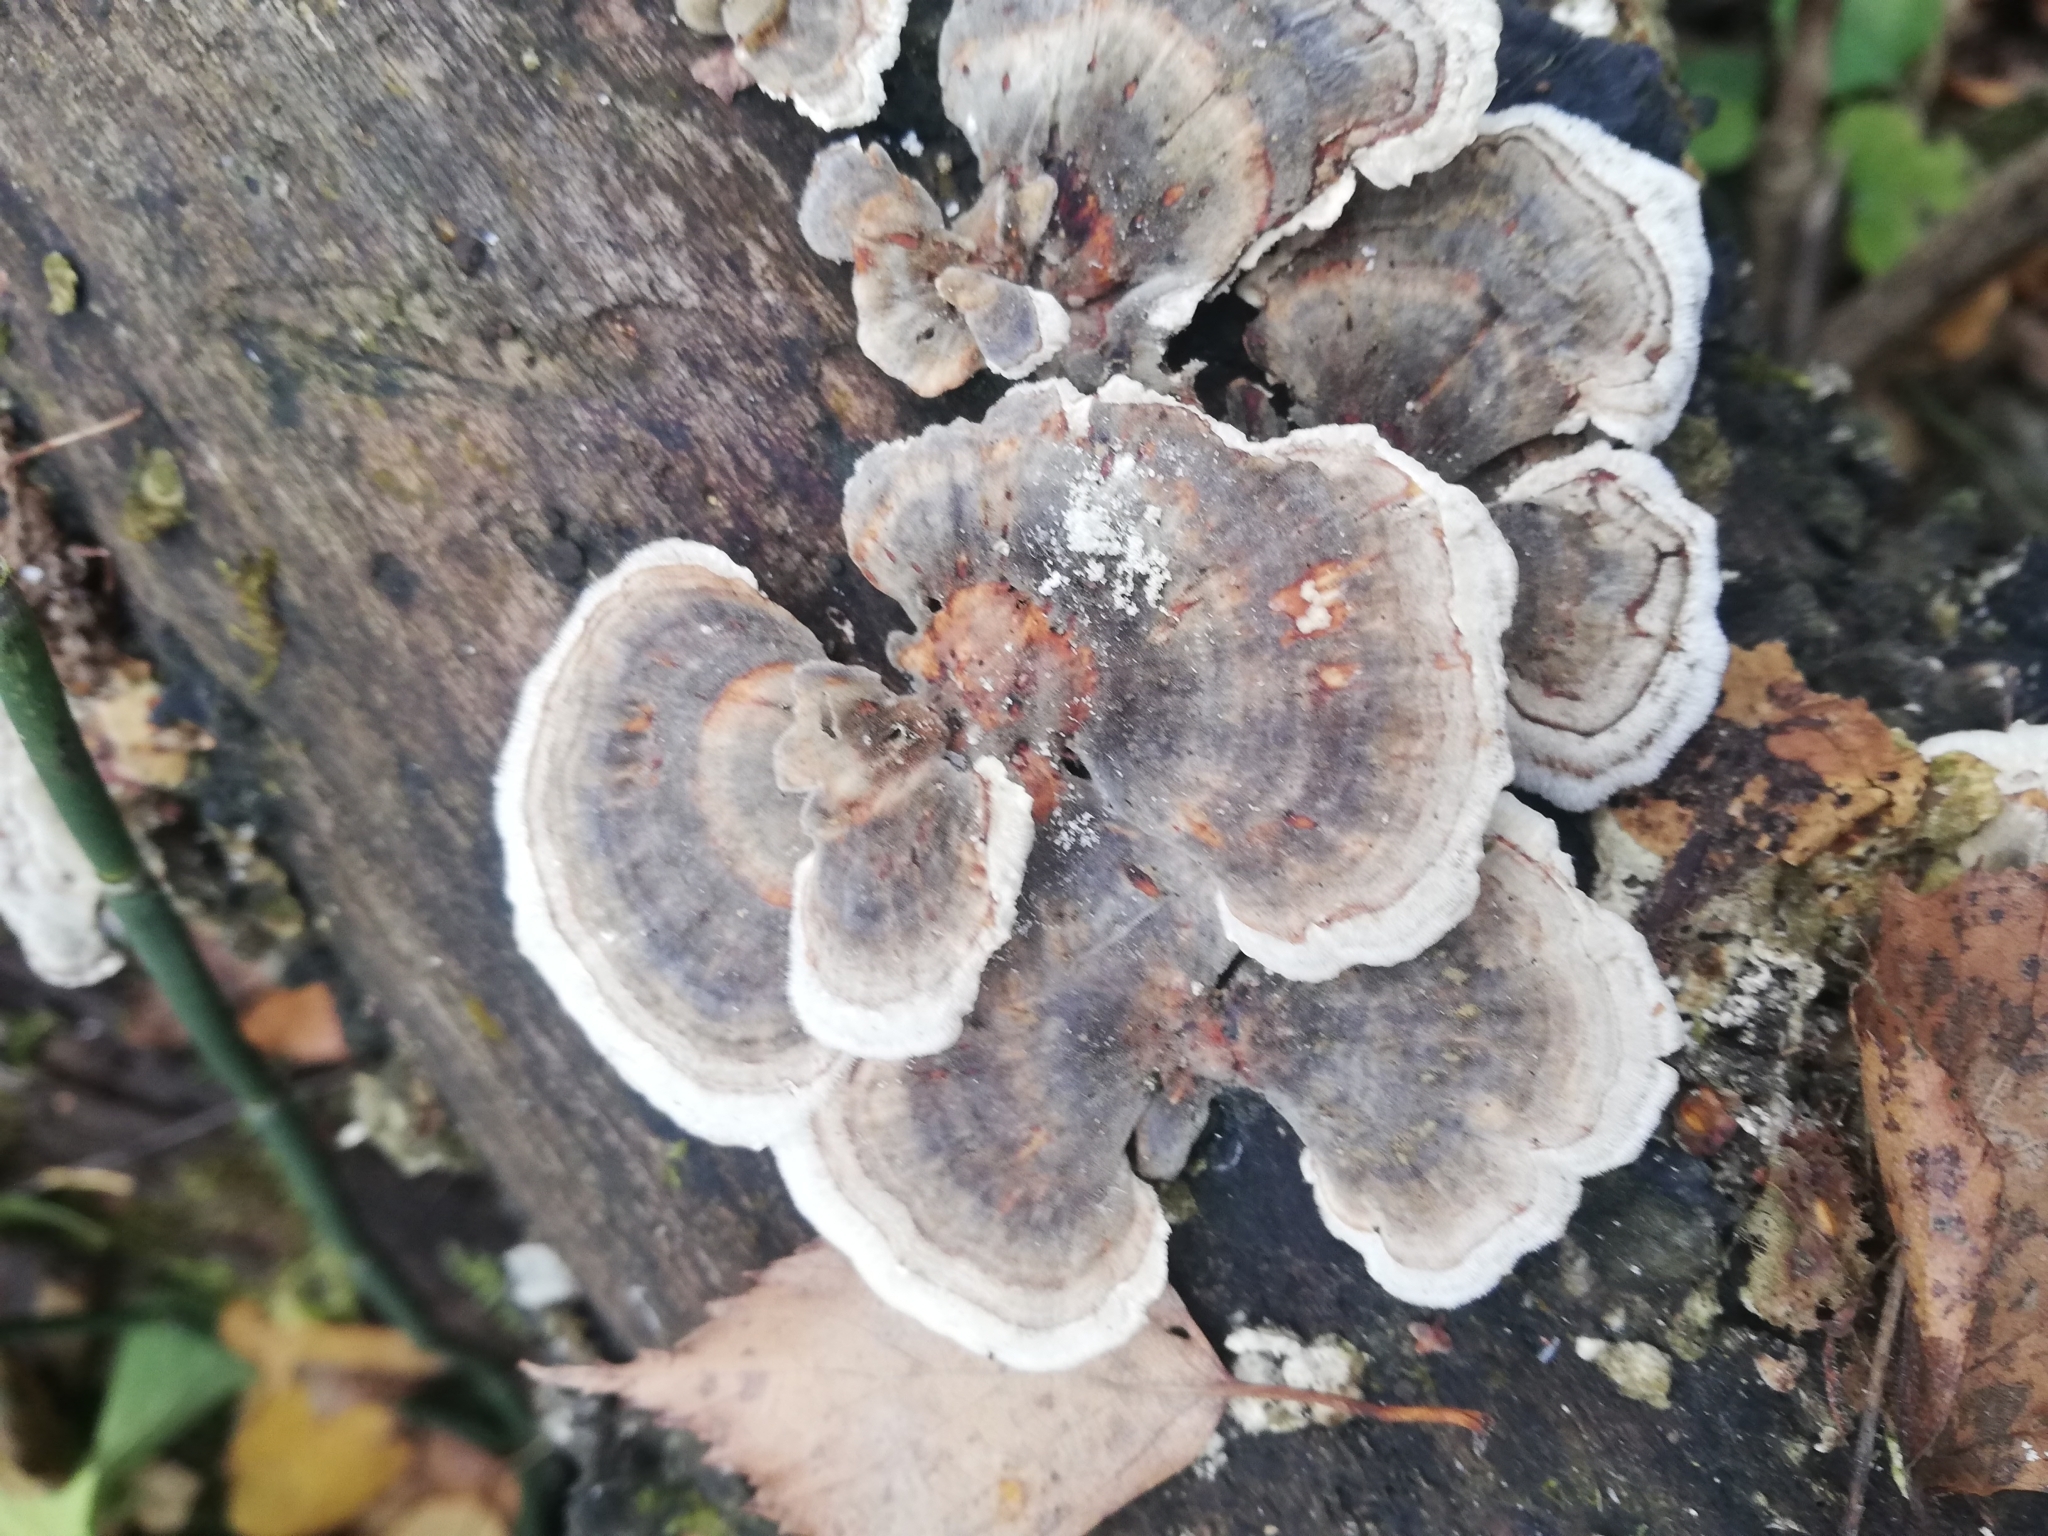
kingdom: Fungi
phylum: Basidiomycota
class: Agaricomycetes
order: Polyporales
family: Polyporaceae
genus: Trametes
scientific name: Trametes versicolor
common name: Turkeytail
